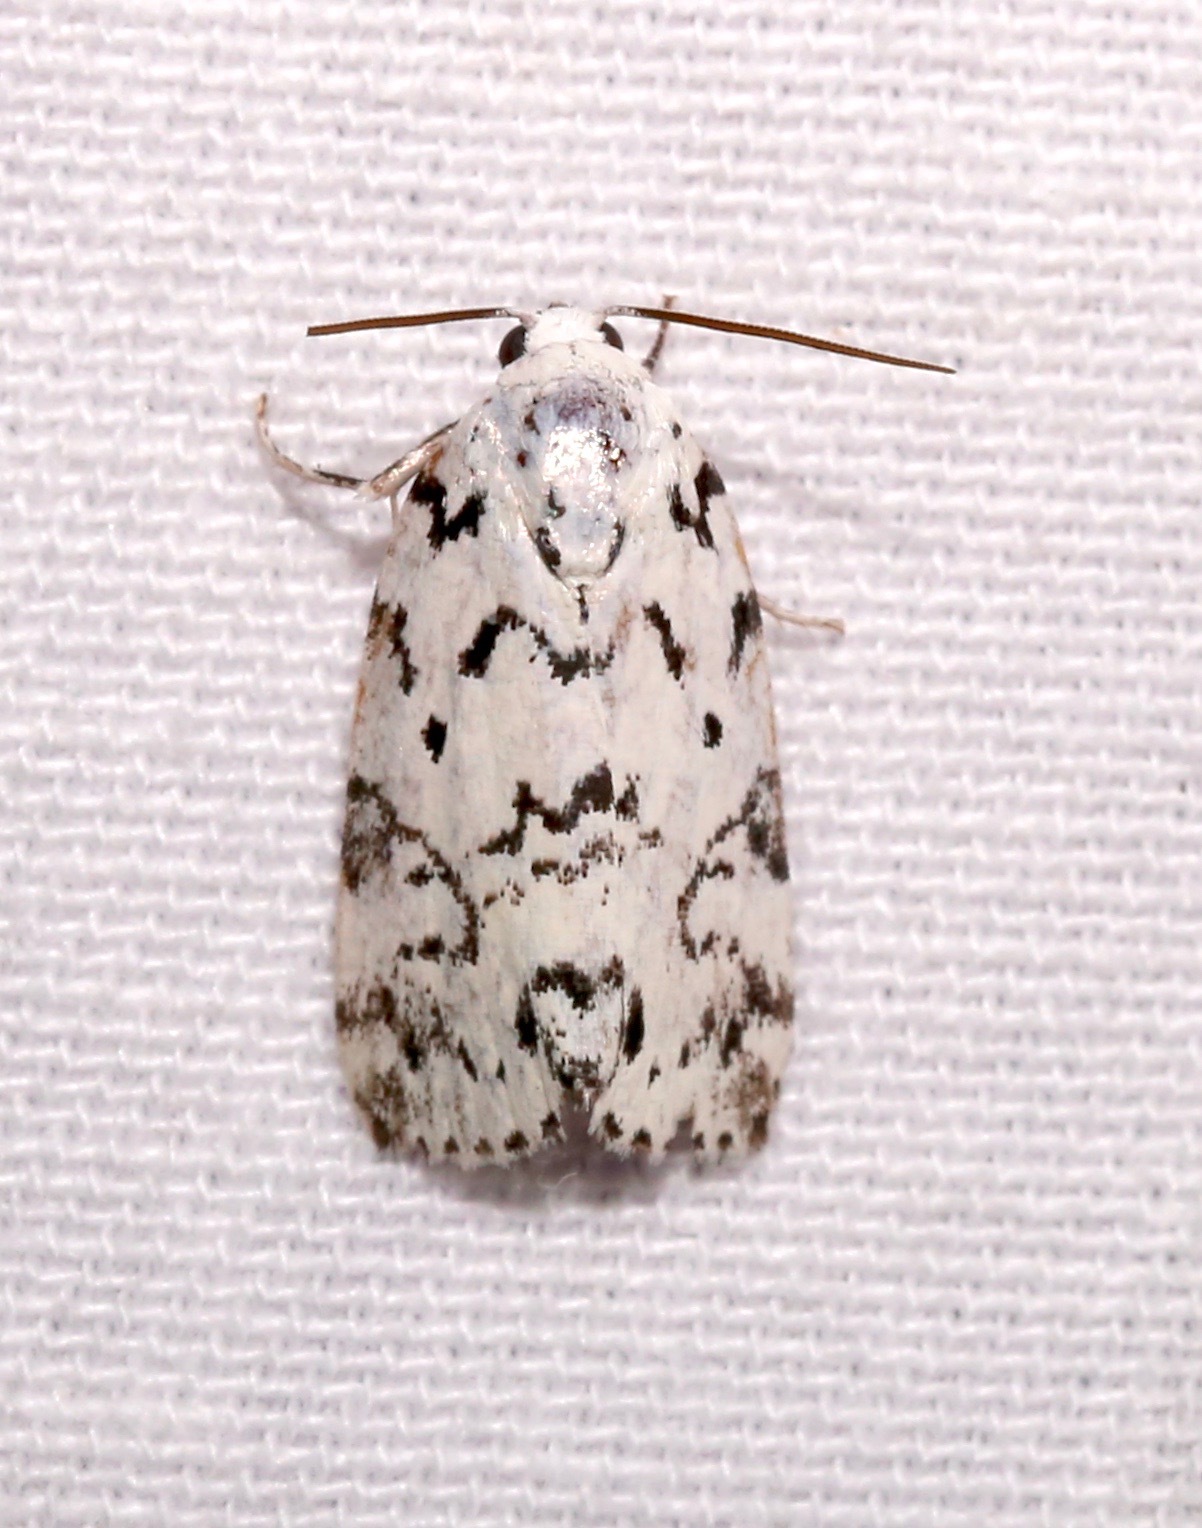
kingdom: Animalia
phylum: Arthropoda
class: Insecta
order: Lepidoptera
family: Noctuidae
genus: Polygrammate
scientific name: Polygrammate hebraeicum
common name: Hebrew moth
